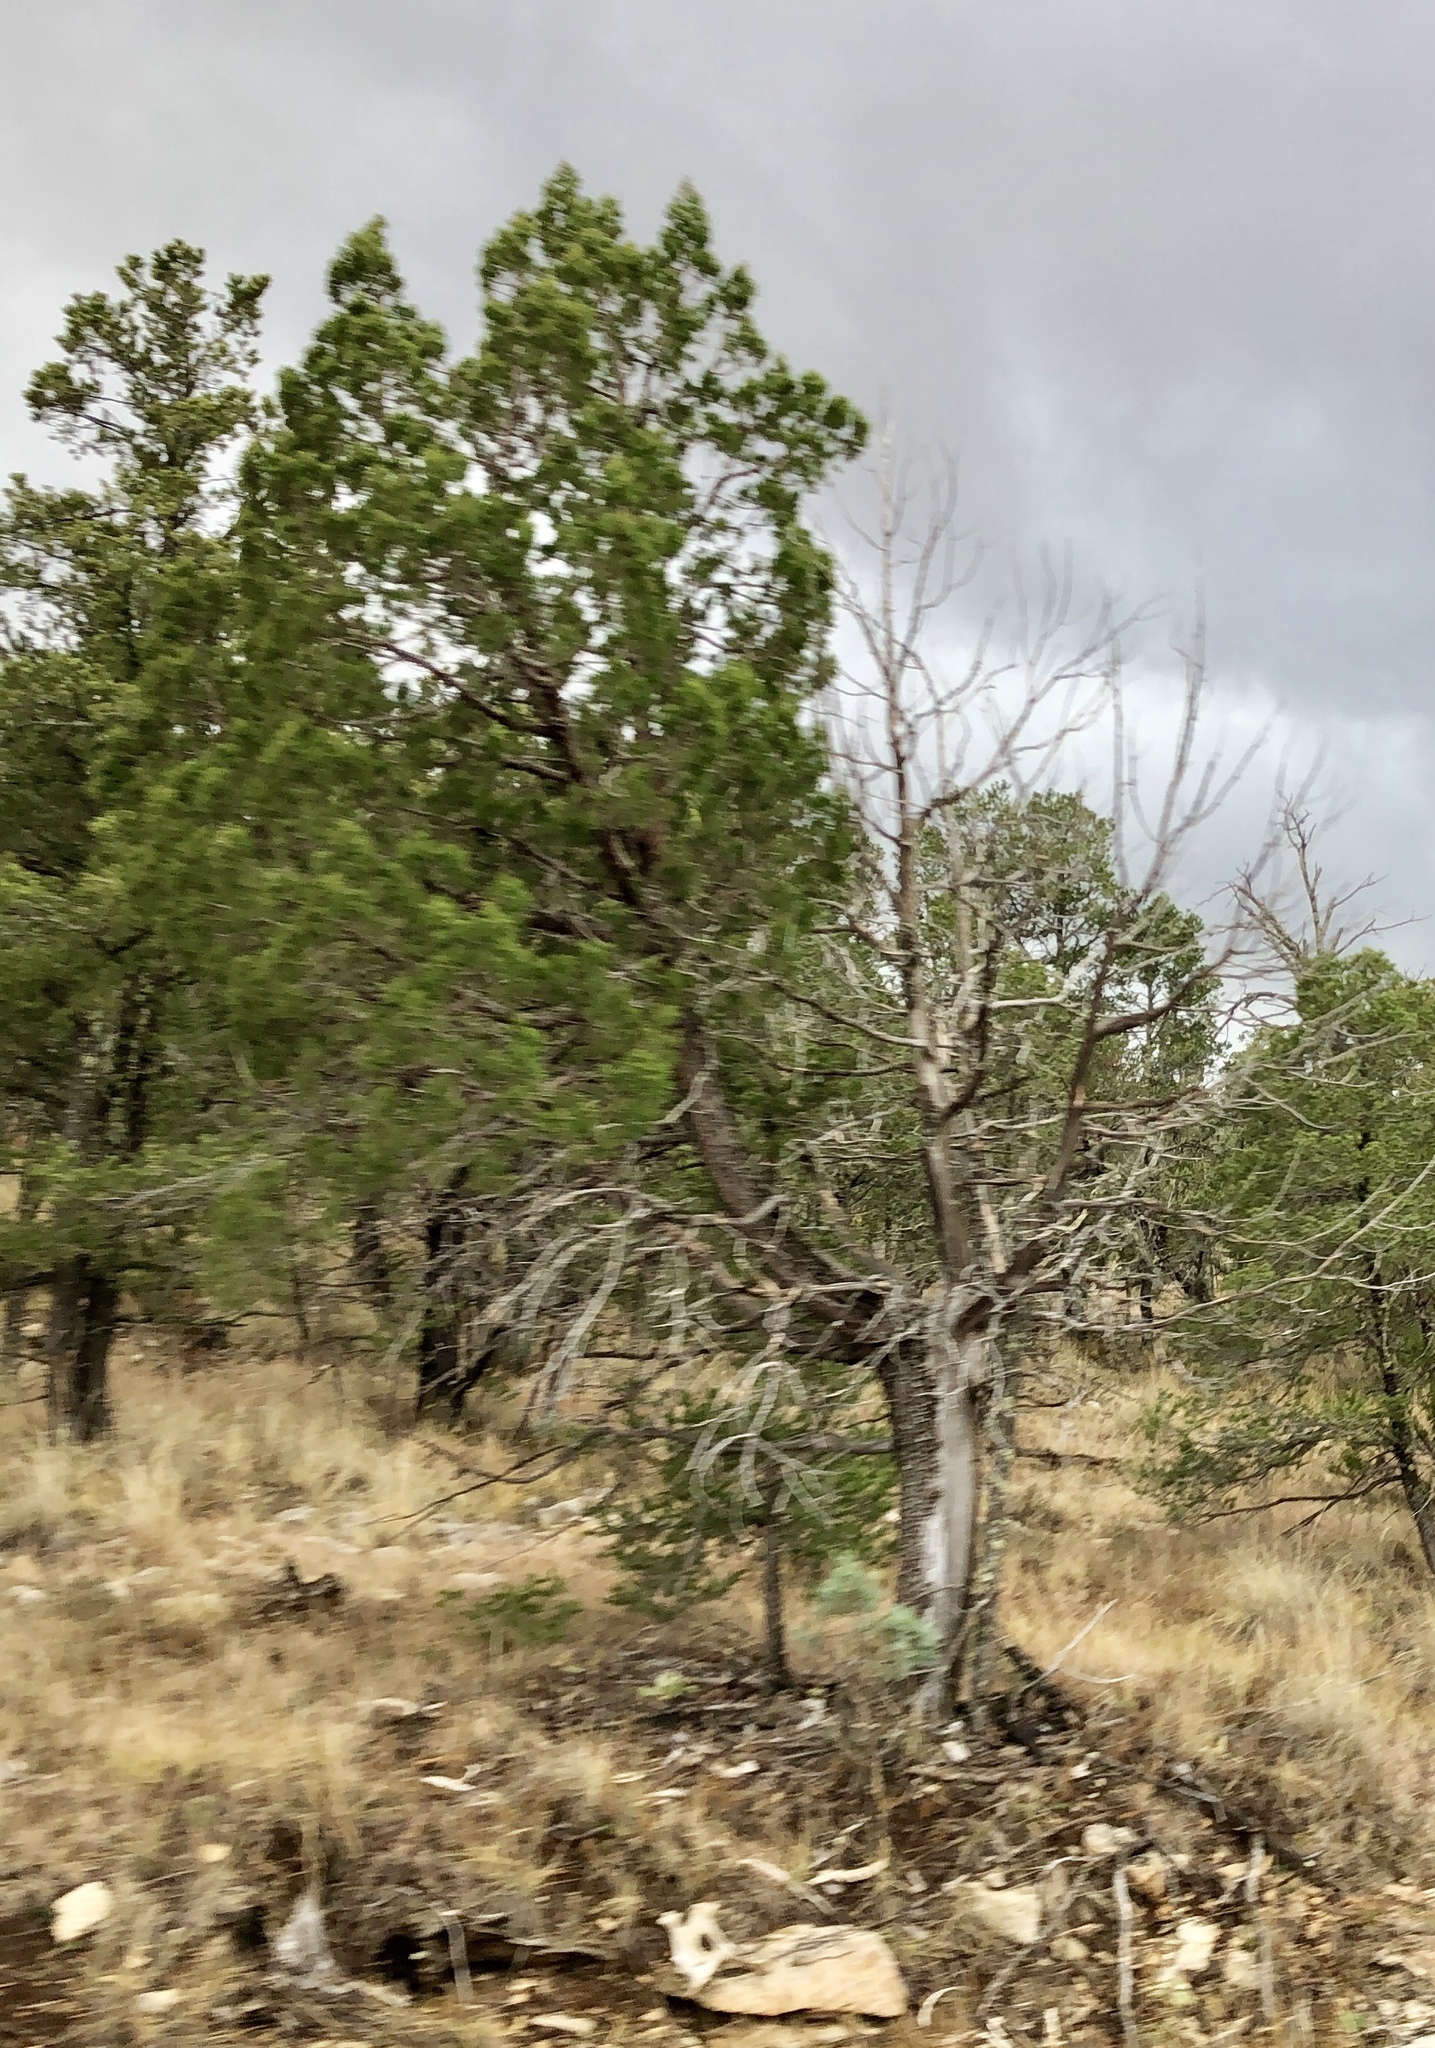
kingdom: Plantae
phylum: Tracheophyta
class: Pinopsida
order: Pinales
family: Cupressaceae
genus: Juniperus
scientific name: Juniperus deppeana
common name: Alligator juniper
